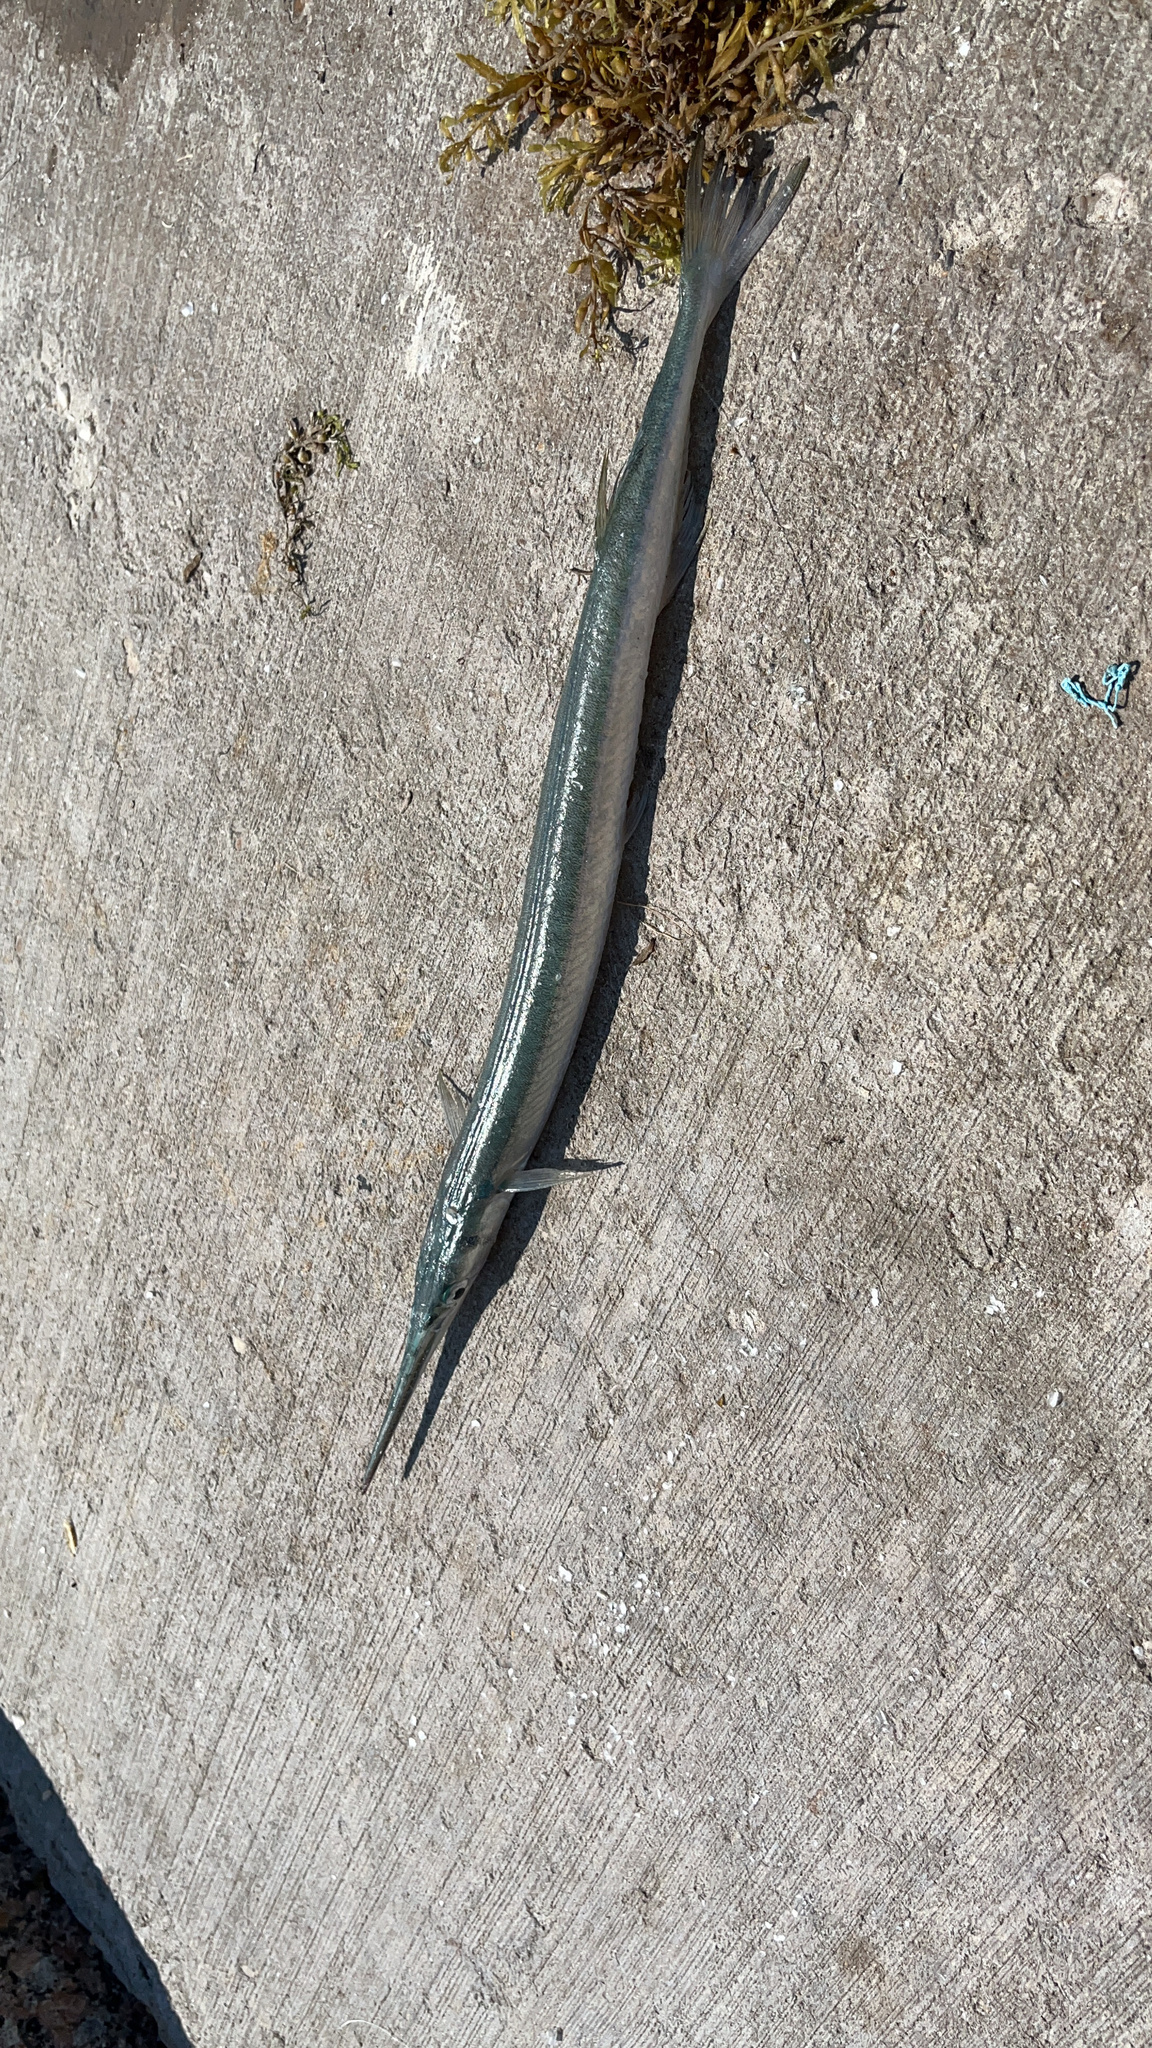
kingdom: Animalia
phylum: Chordata
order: Beloniformes
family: Belonidae
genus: Strongylura
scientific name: Strongylura marina
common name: Atlantic needlefish
